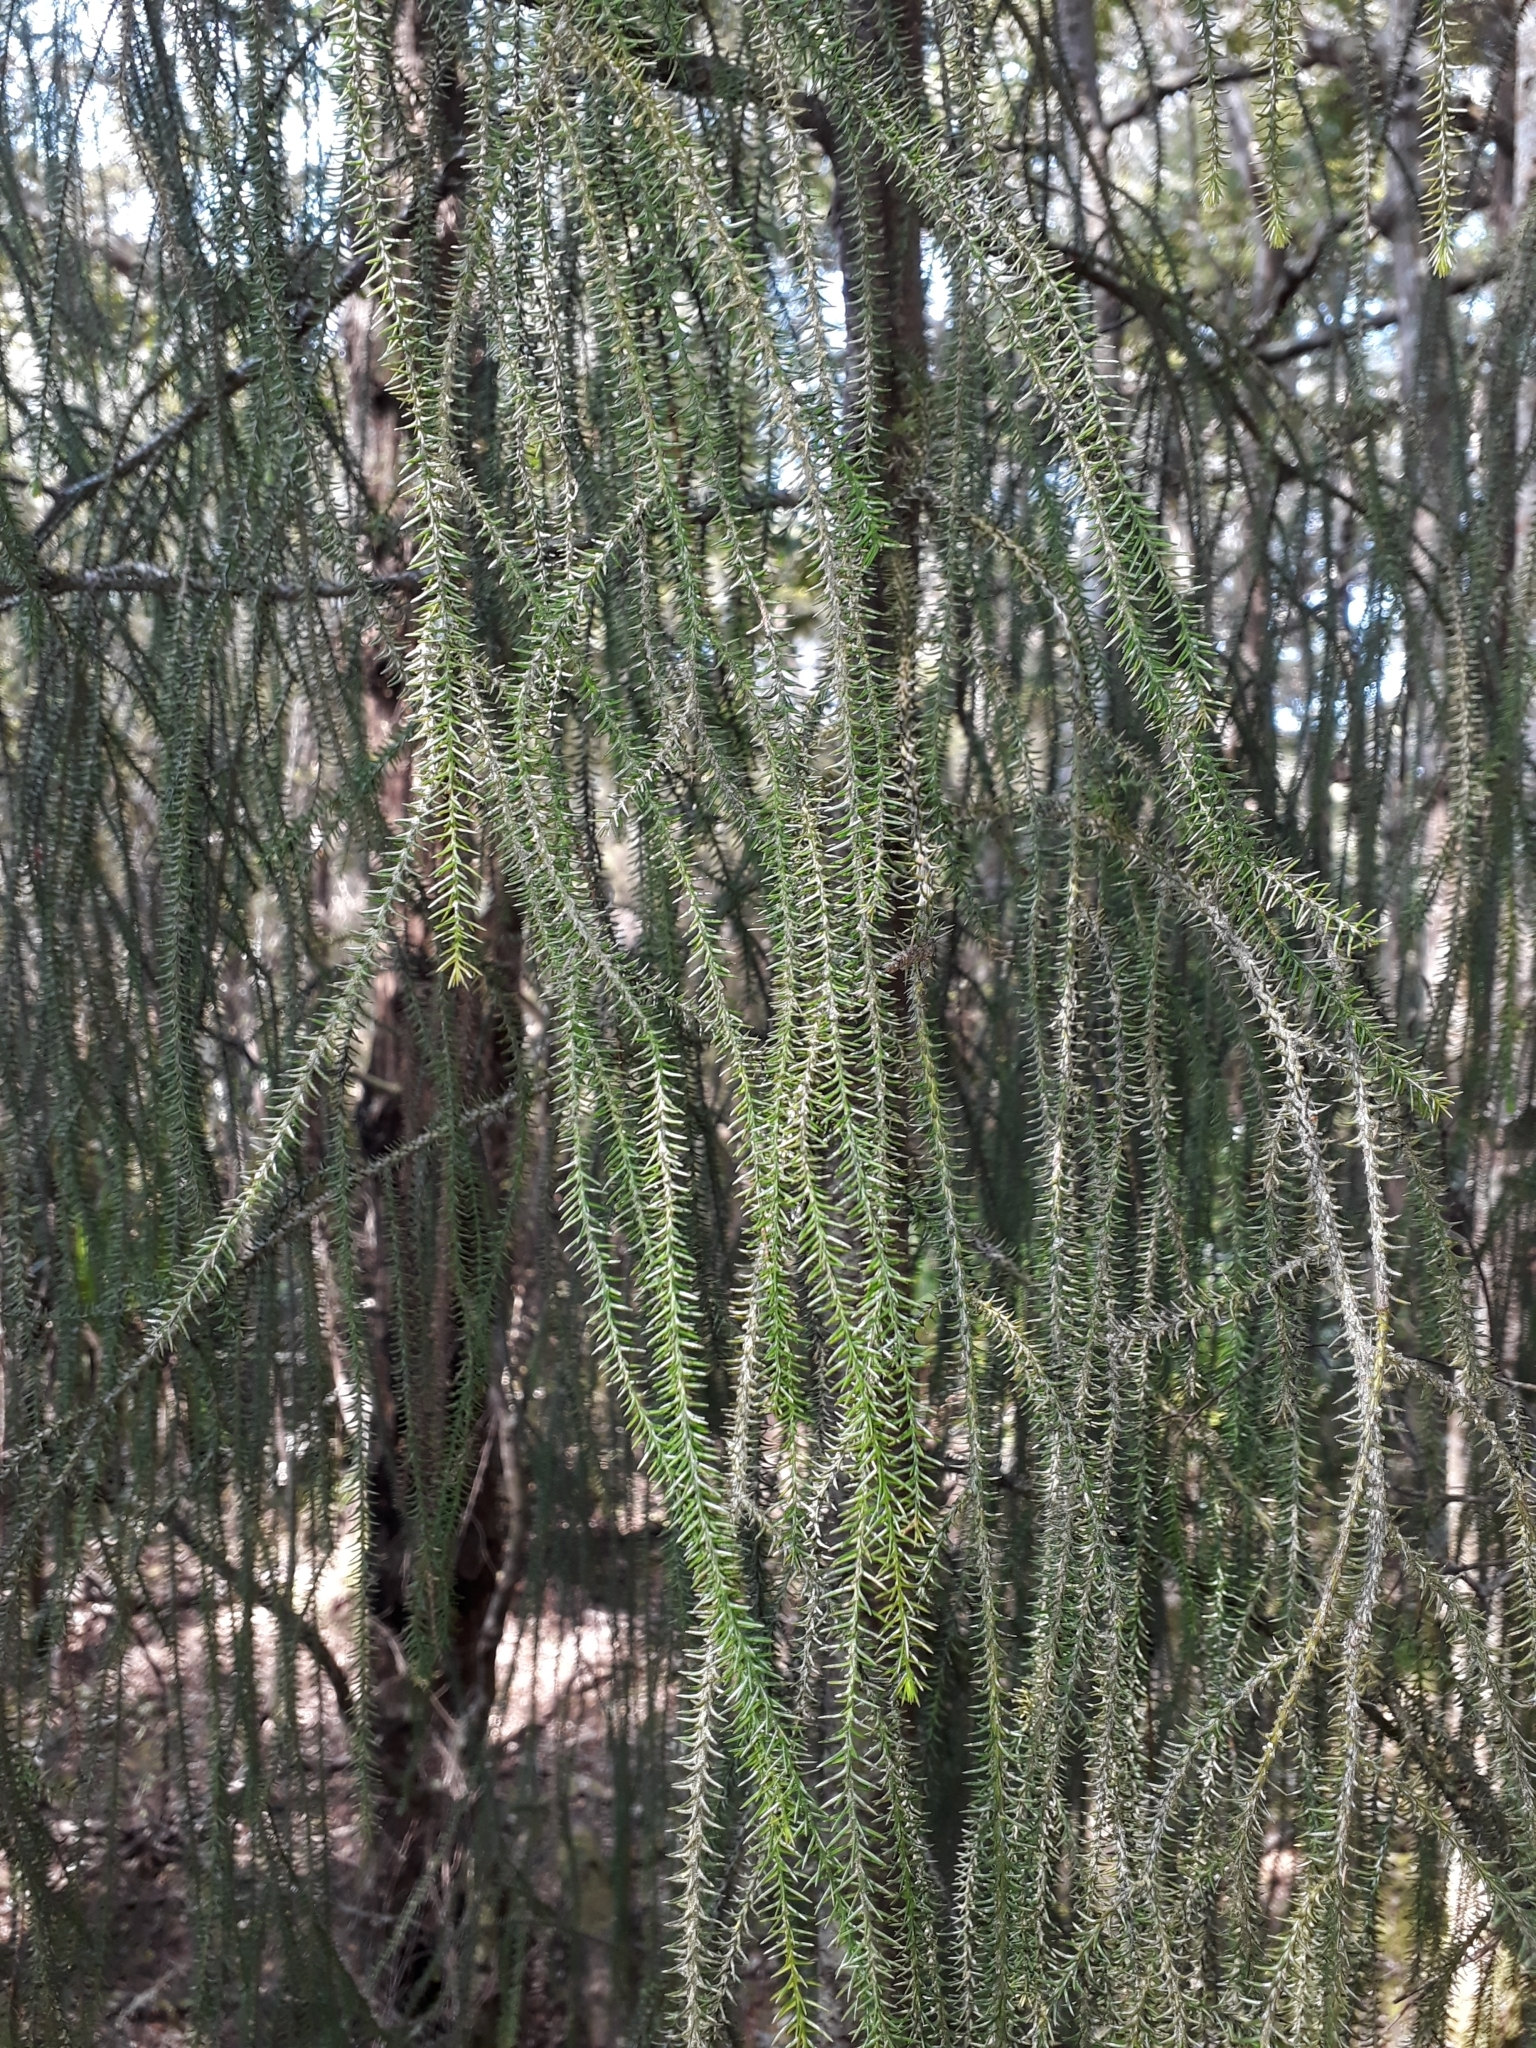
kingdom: Plantae
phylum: Tracheophyta
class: Pinopsida
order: Pinales
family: Podocarpaceae
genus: Dacrydium
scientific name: Dacrydium cupressinum
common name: Red pine
